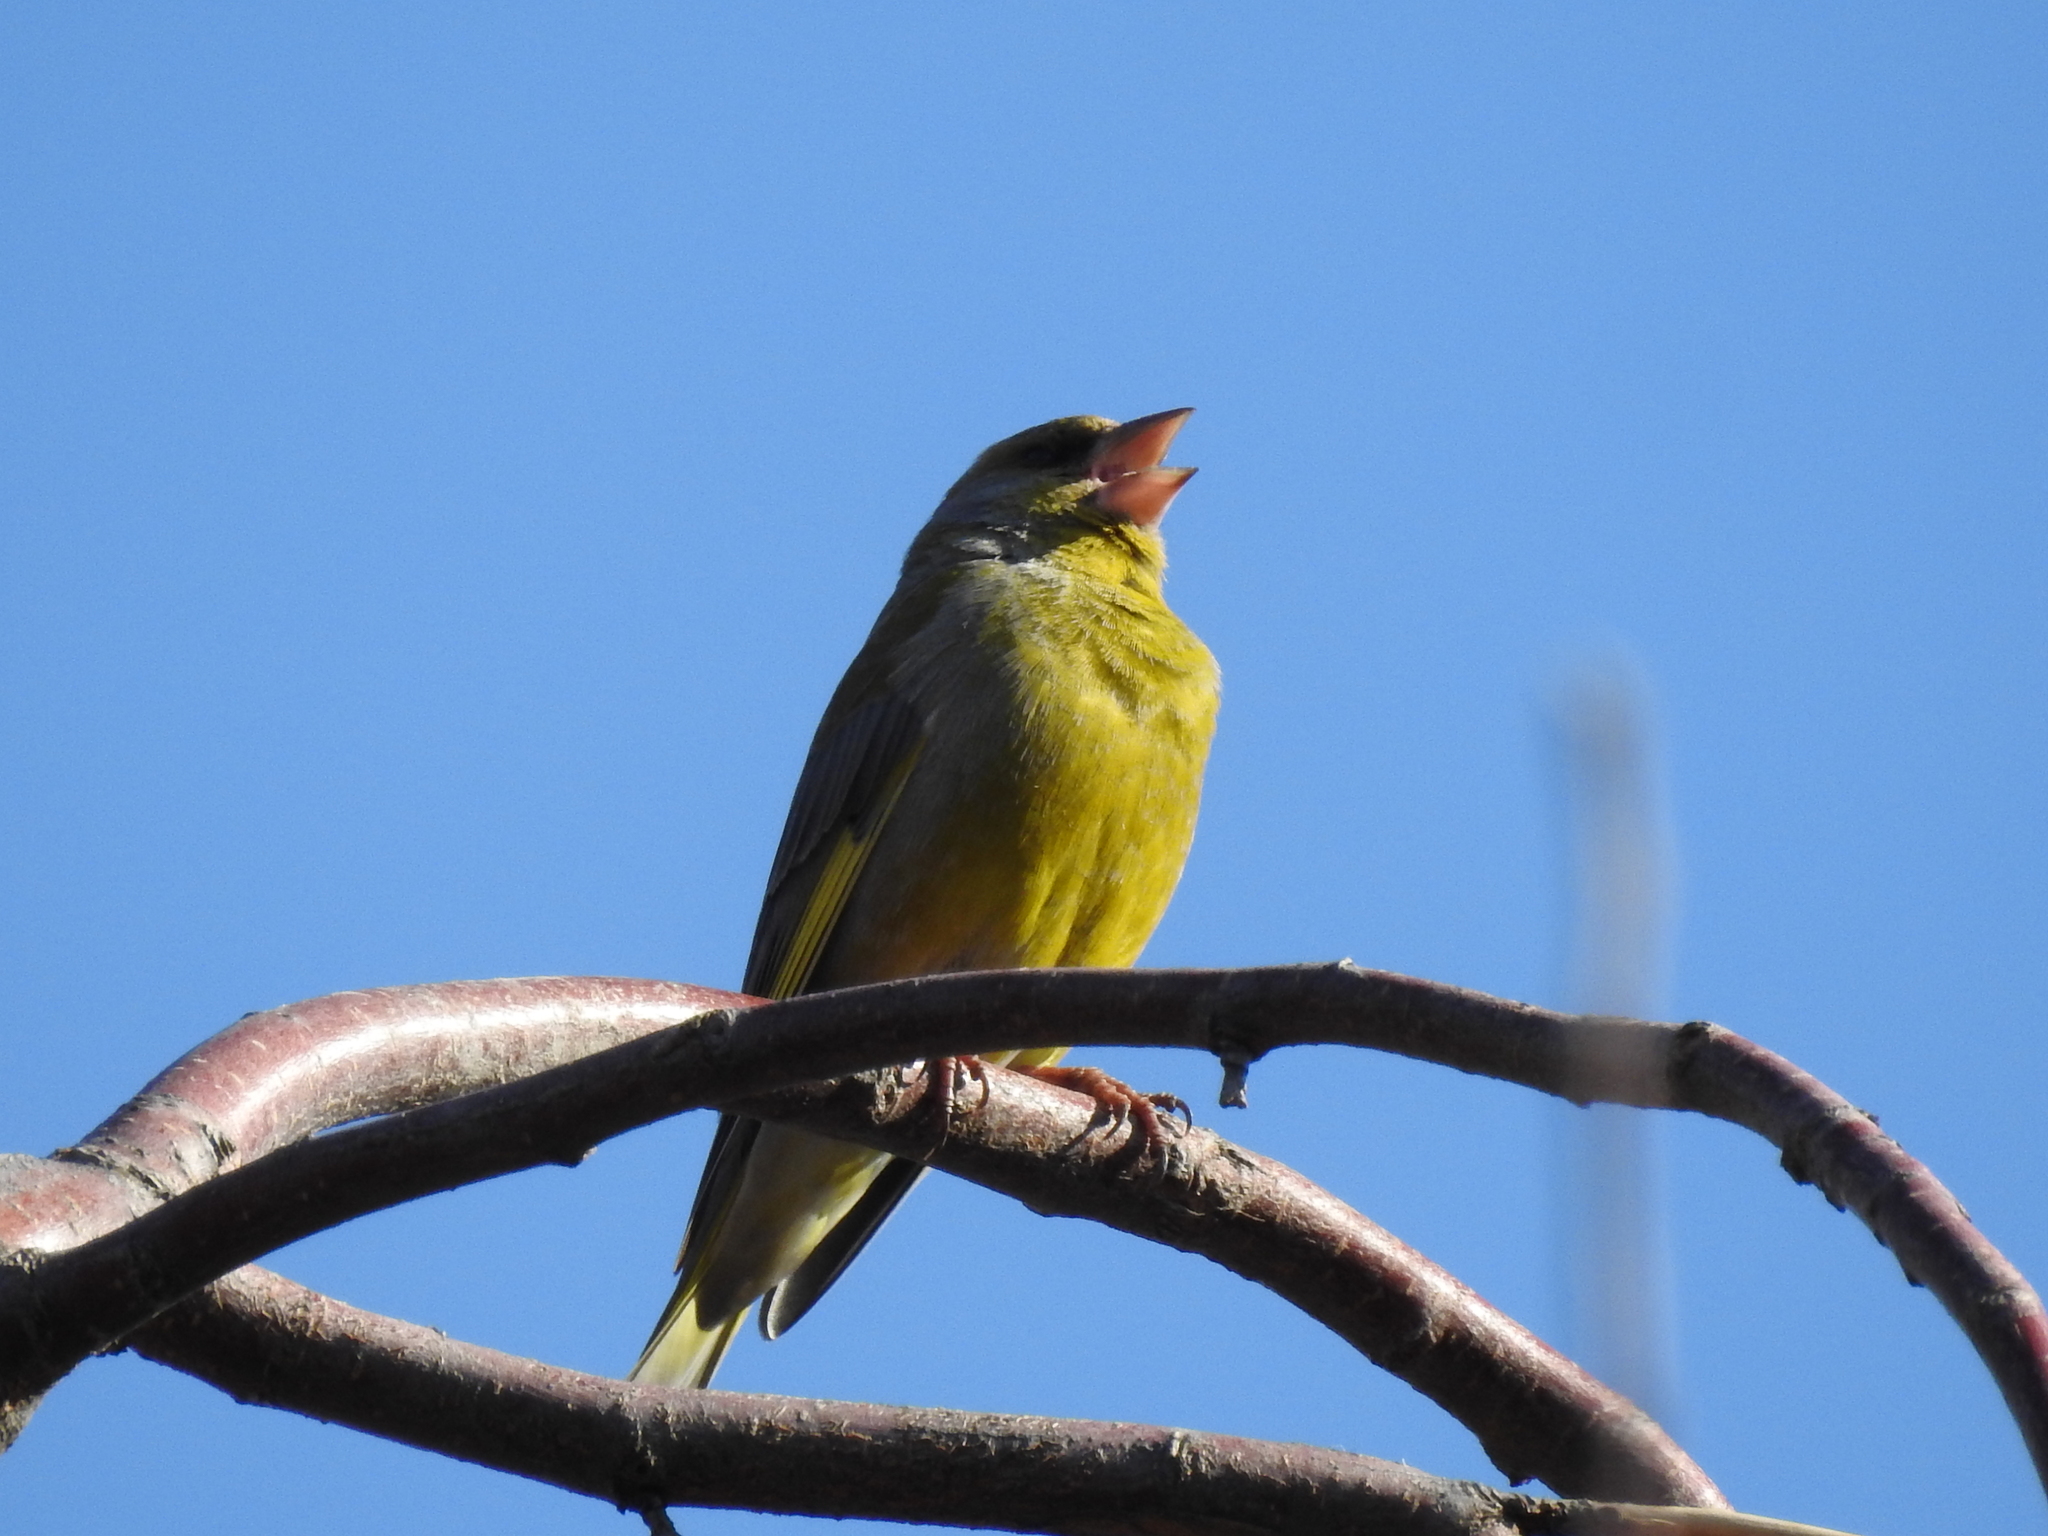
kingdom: Plantae
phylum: Tracheophyta
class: Liliopsida
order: Poales
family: Poaceae
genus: Chloris
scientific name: Chloris chloris
